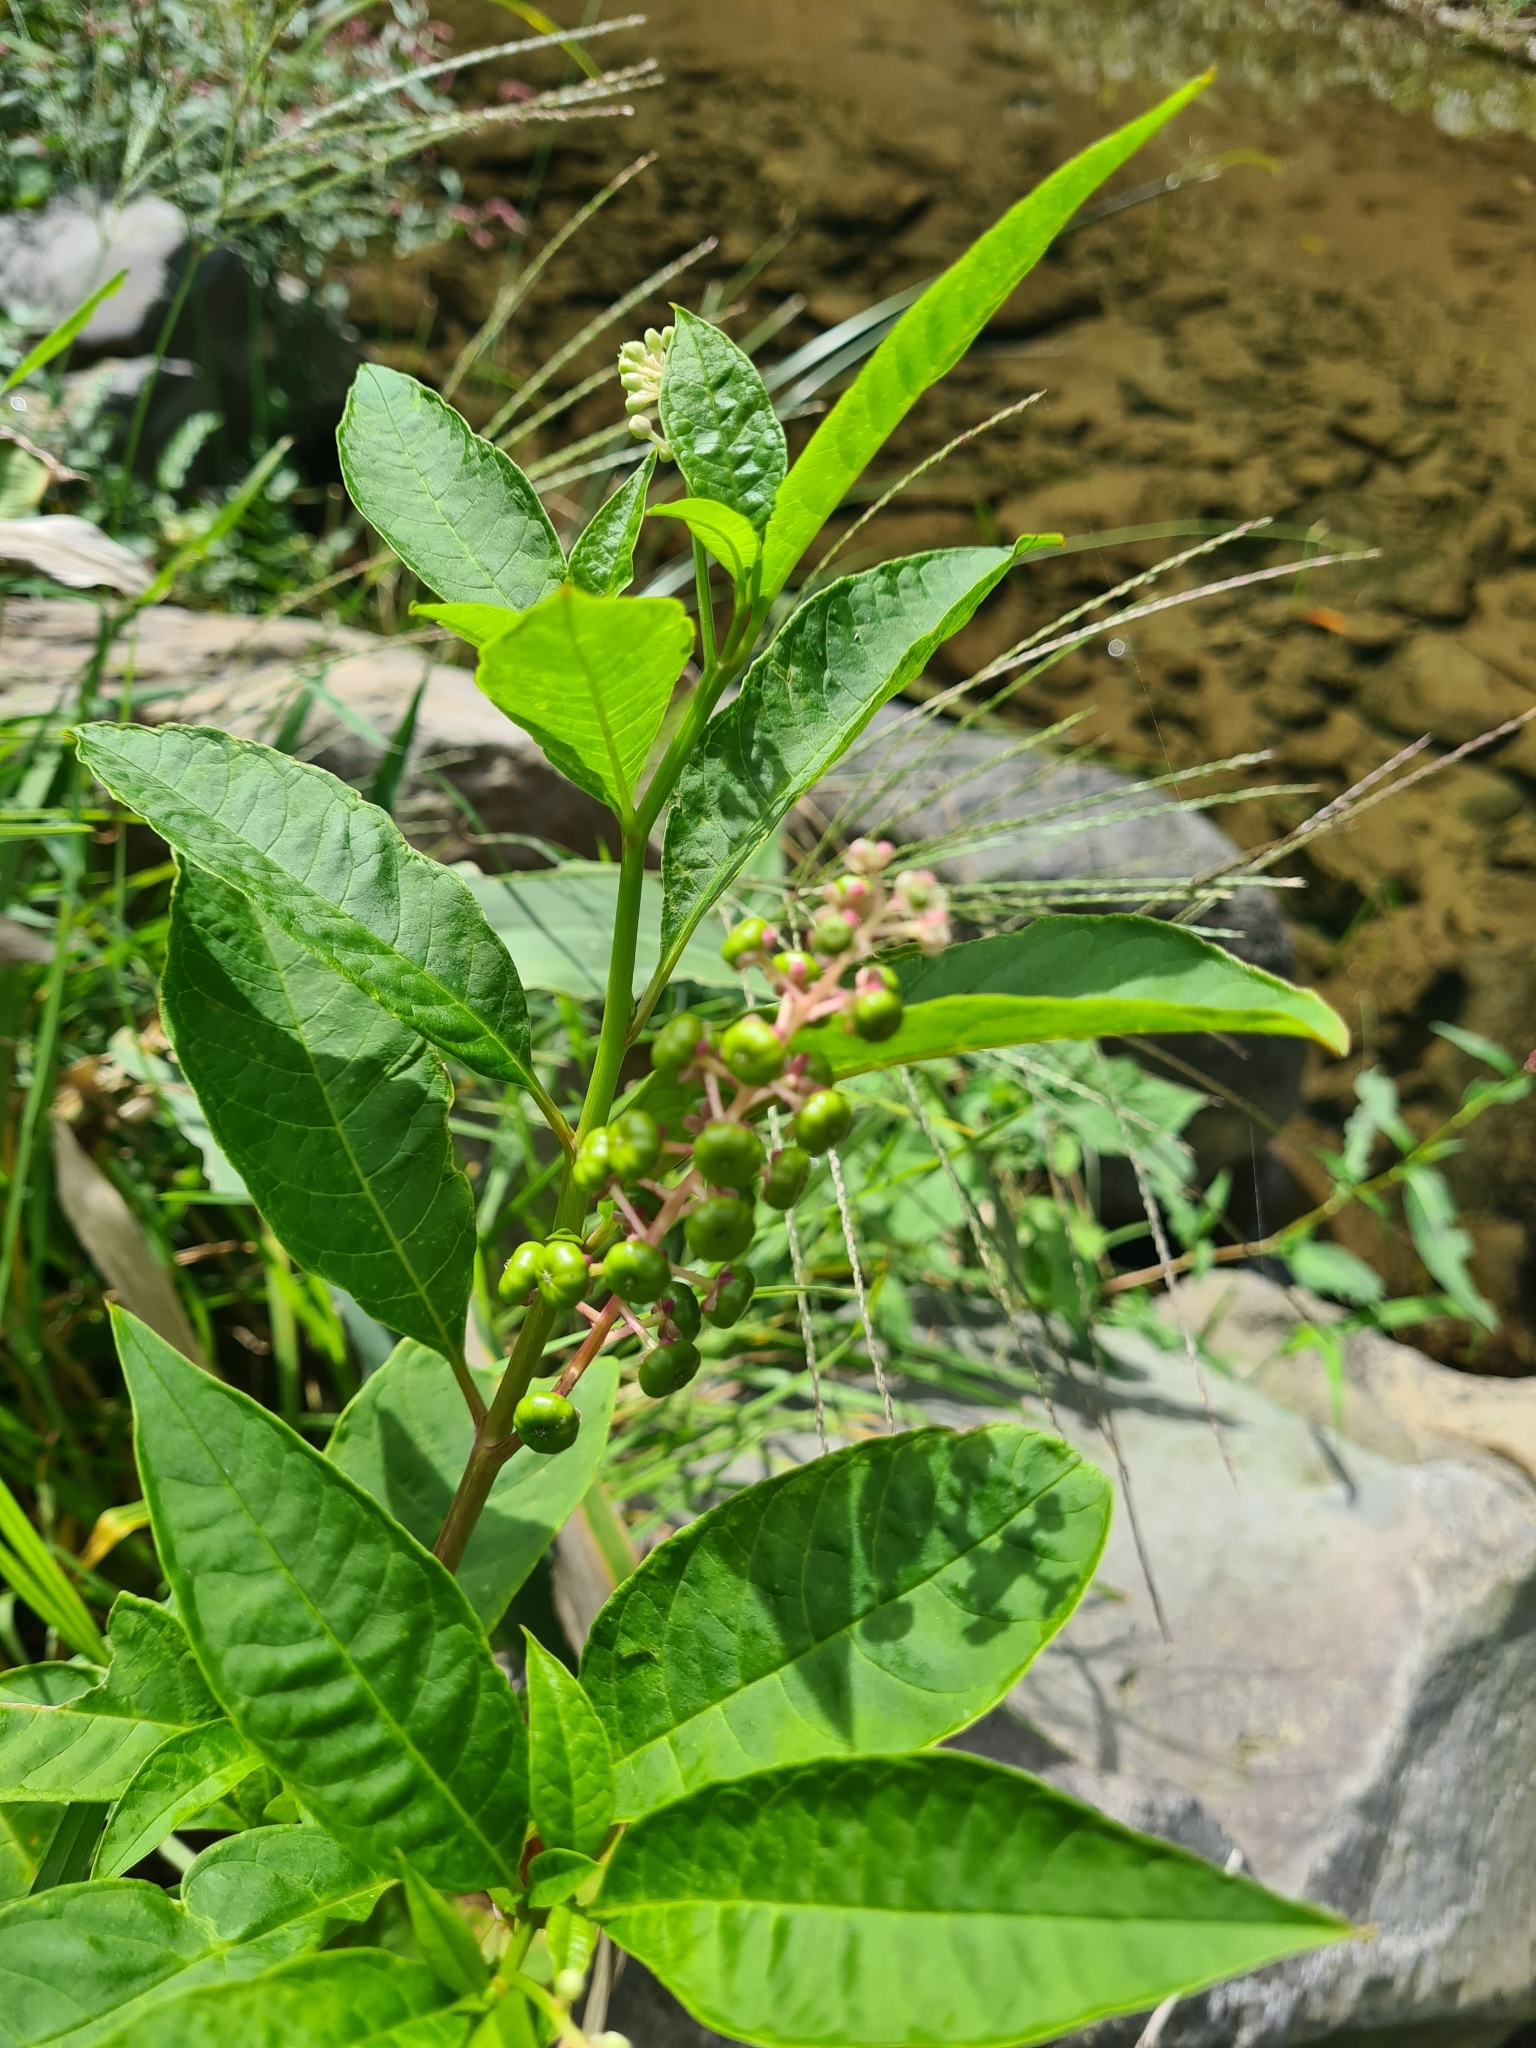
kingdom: Plantae
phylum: Tracheophyta
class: Magnoliopsida
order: Caryophyllales
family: Phytolaccaceae
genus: Phytolacca
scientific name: Phytolacca americana
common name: American pokeweed
